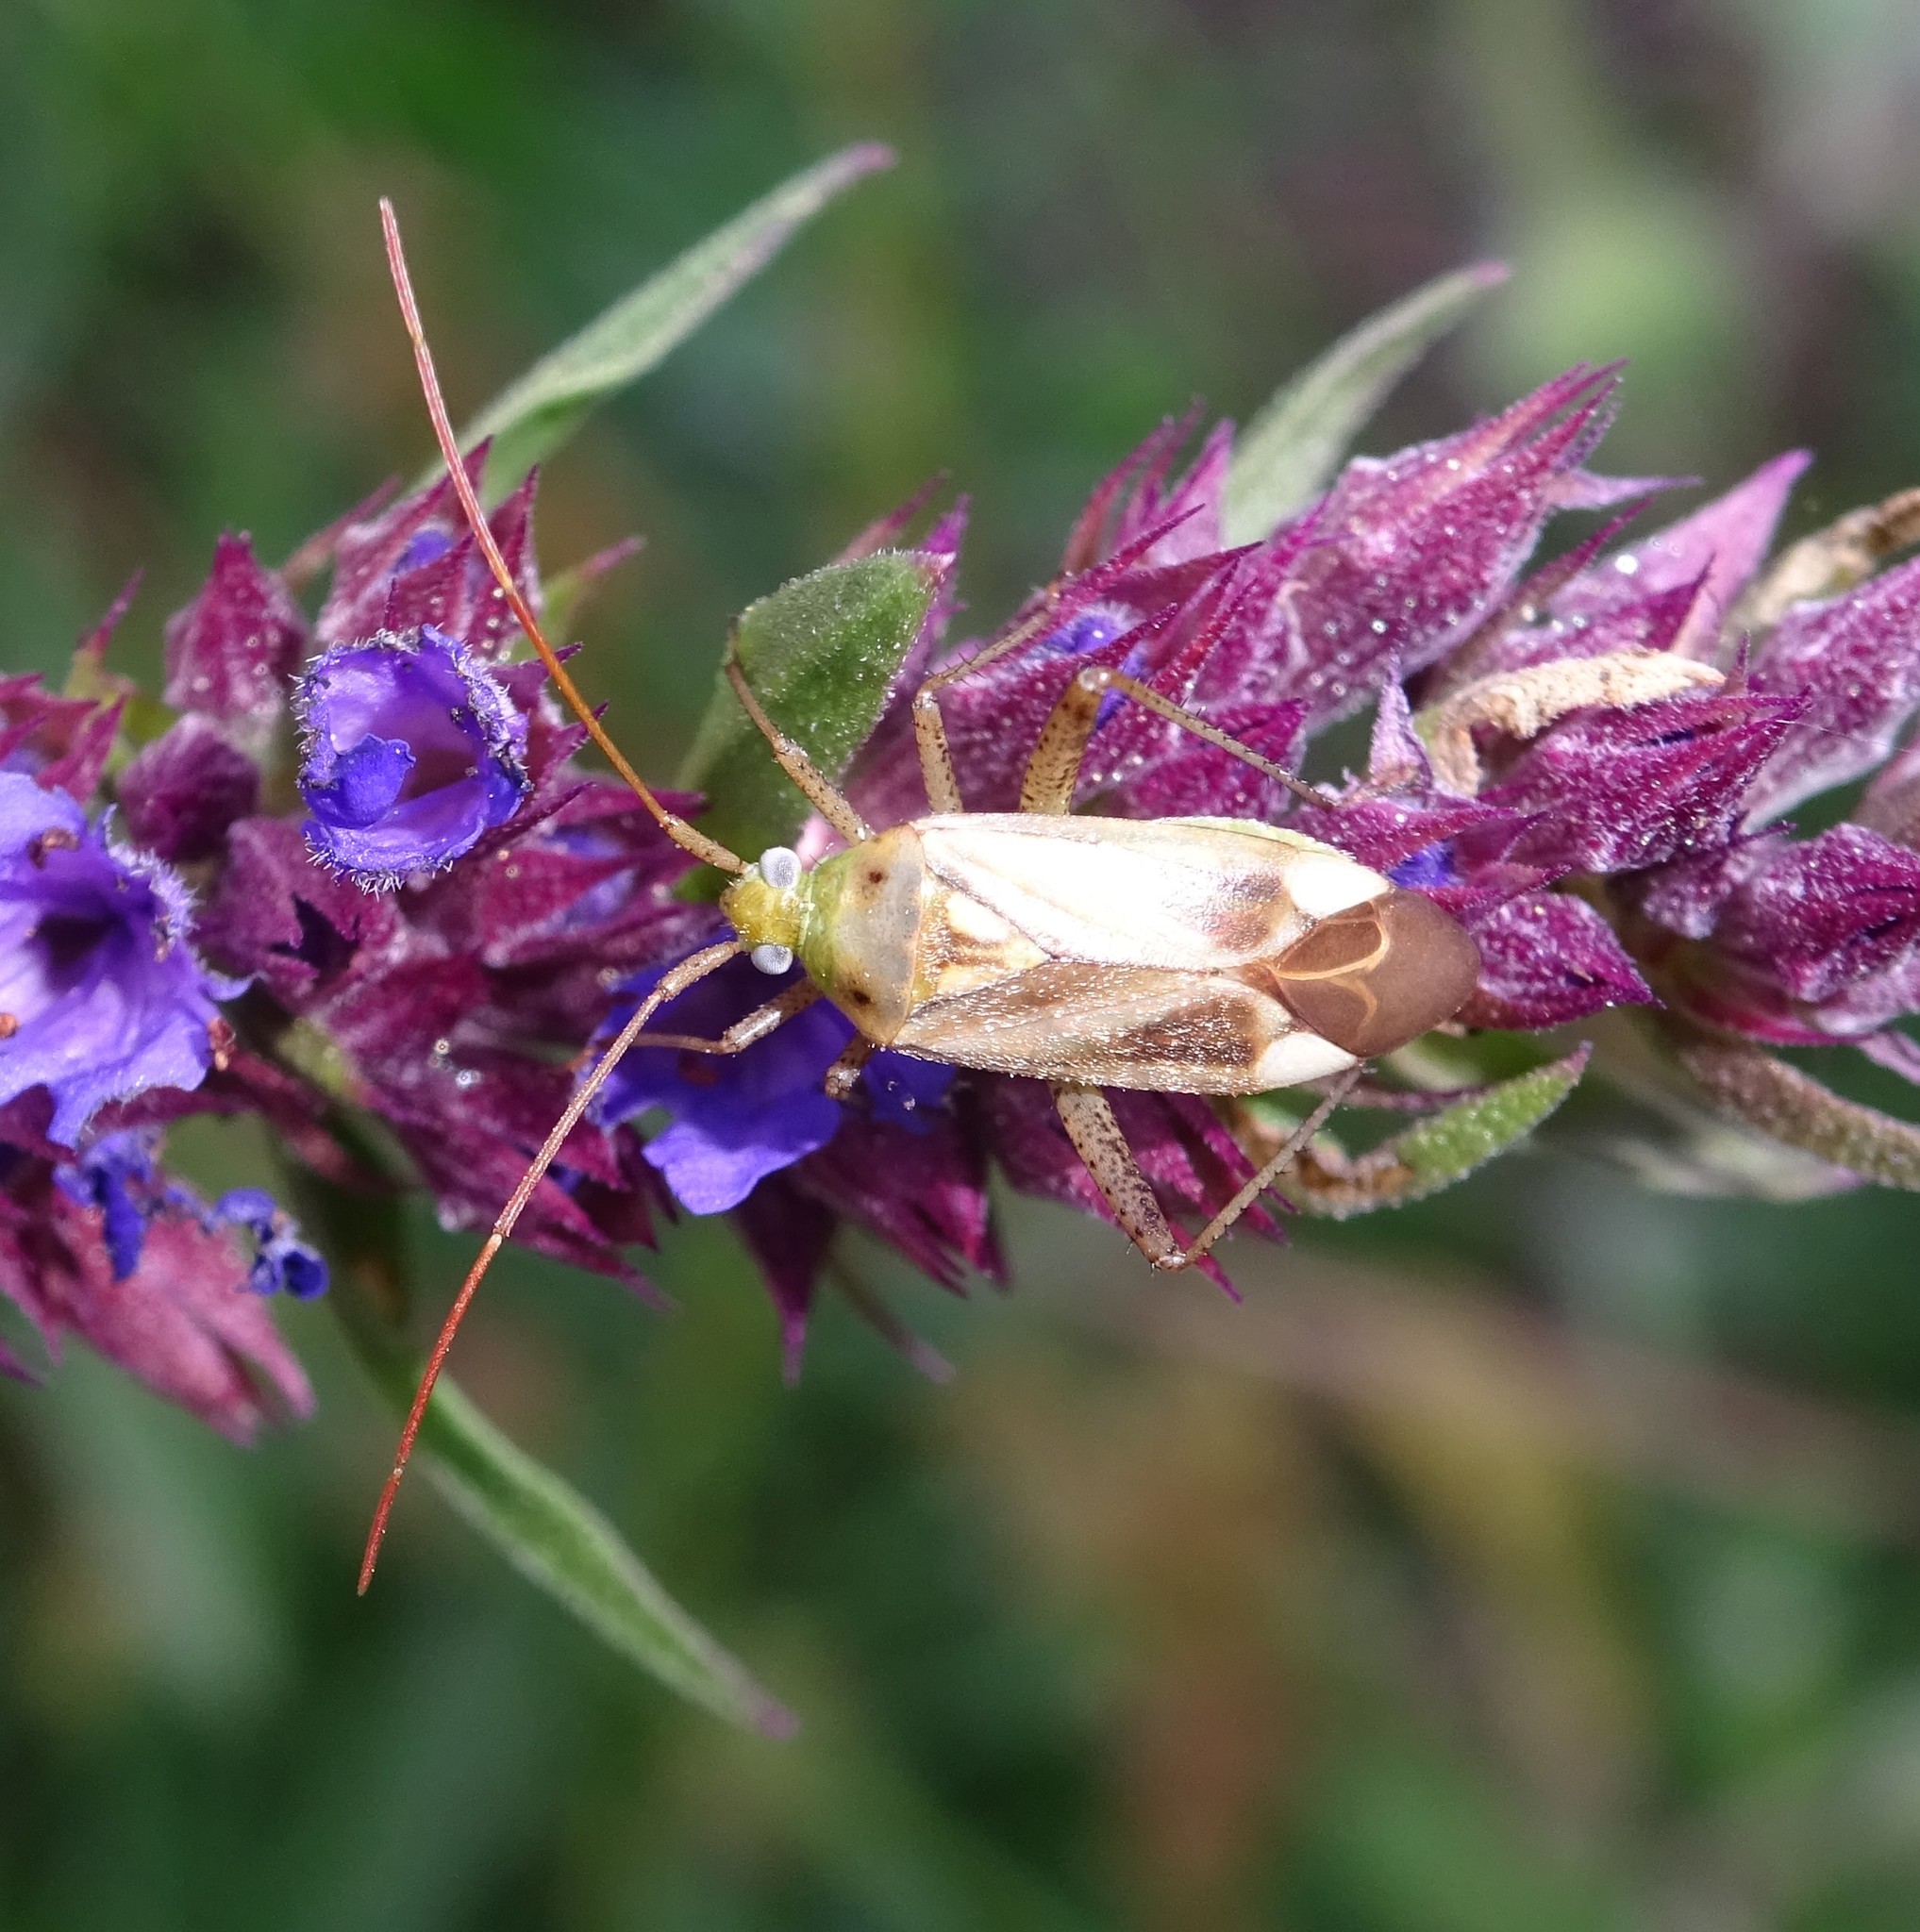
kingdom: Animalia
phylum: Arthropoda
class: Insecta
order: Hemiptera
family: Miridae
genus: Adelphocoris
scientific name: Adelphocoris lineolatus
